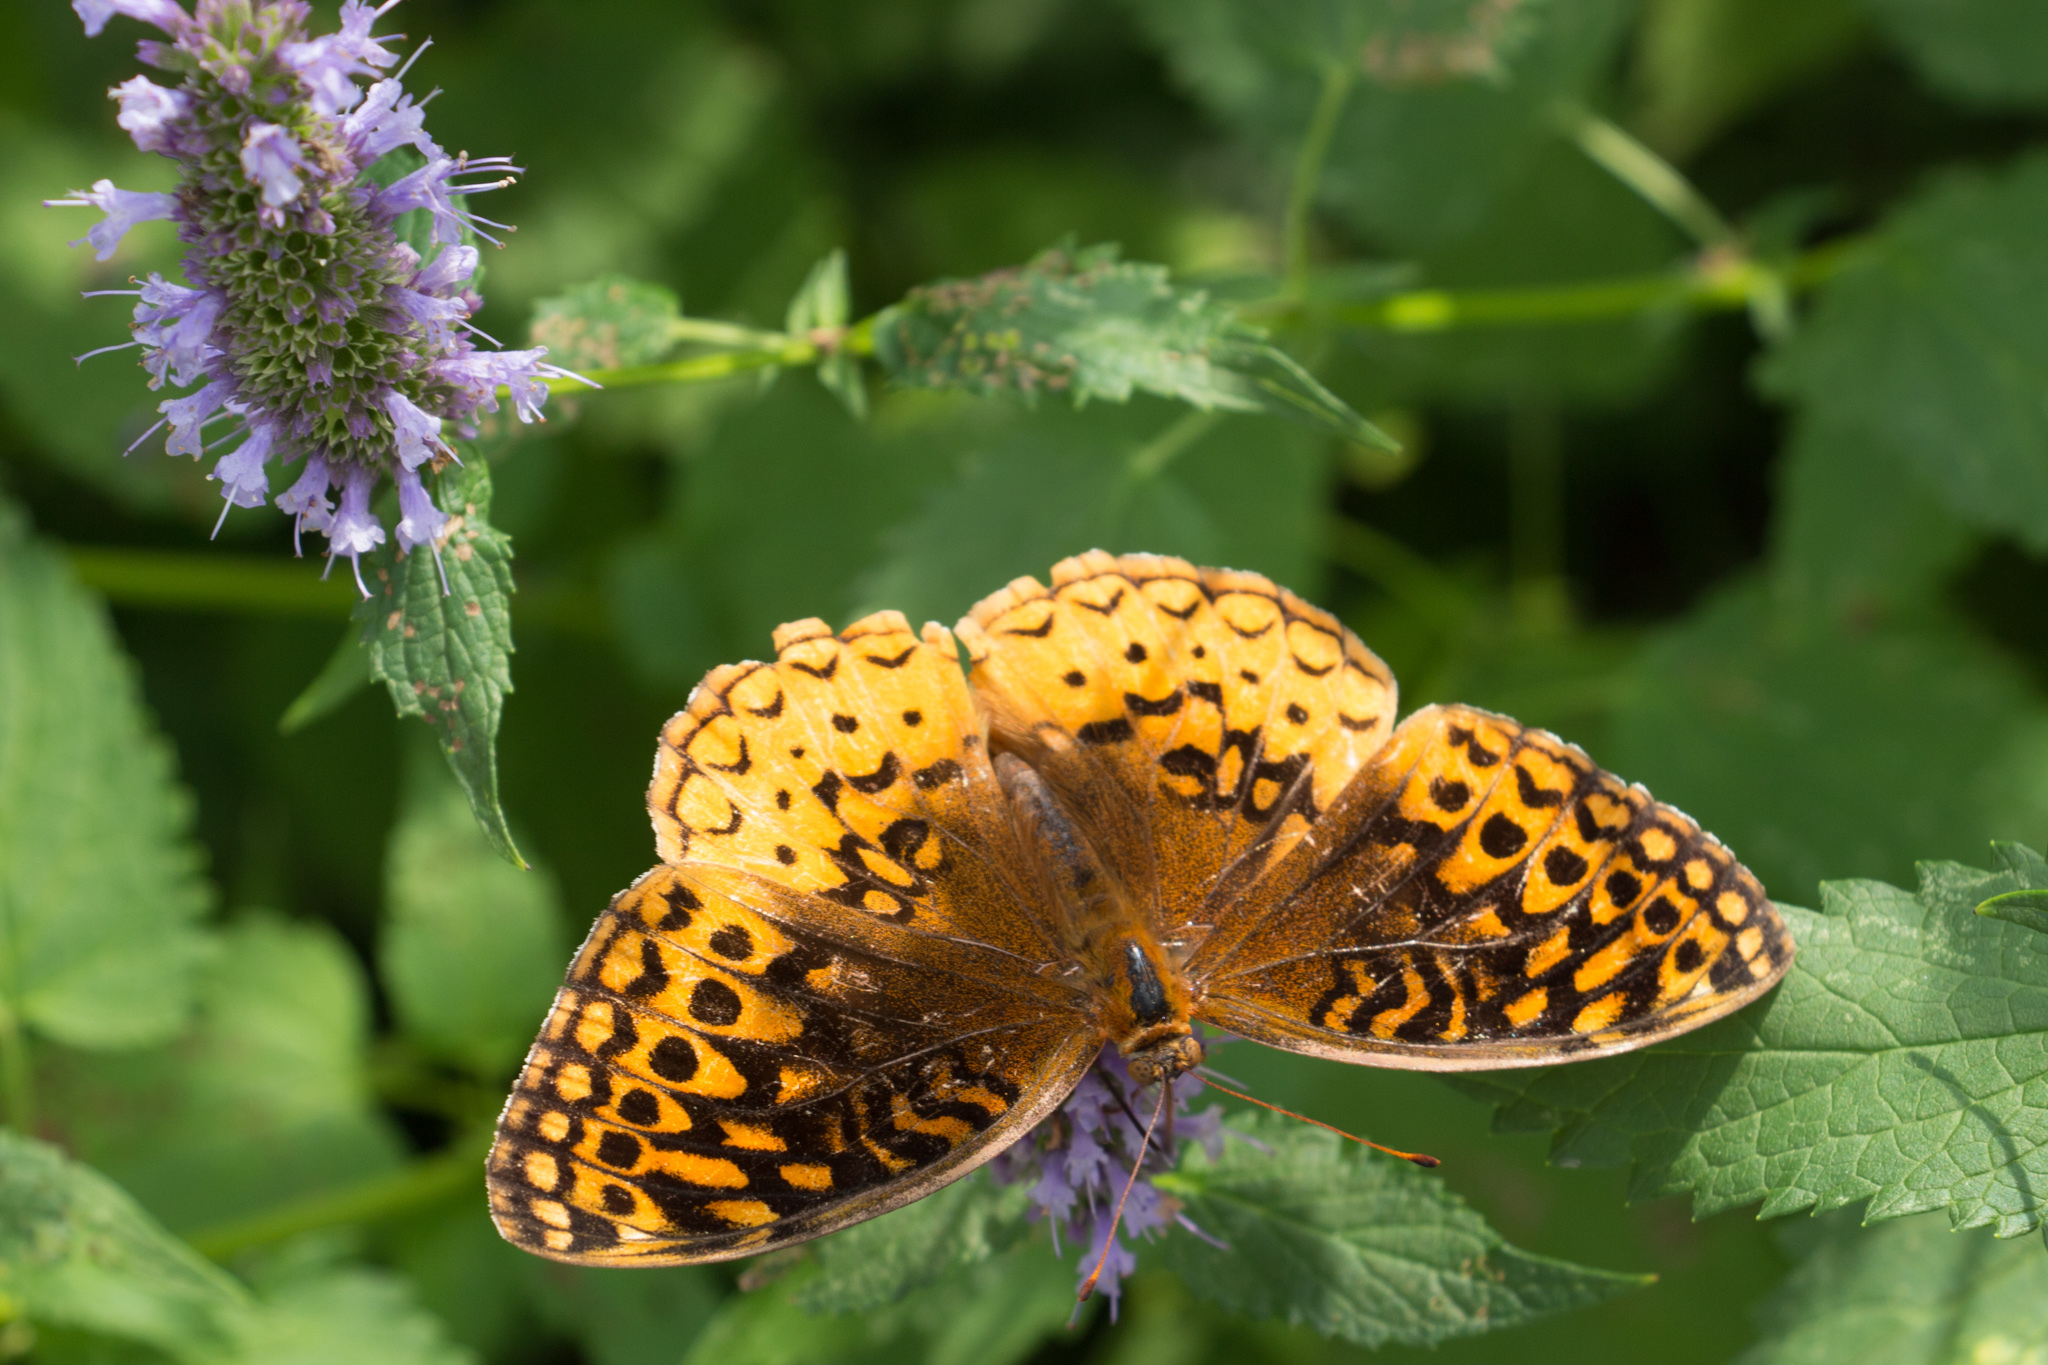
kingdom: Animalia
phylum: Arthropoda
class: Insecta
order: Lepidoptera
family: Nymphalidae
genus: Speyeria
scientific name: Speyeria cybele
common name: Great spangled fritillary
